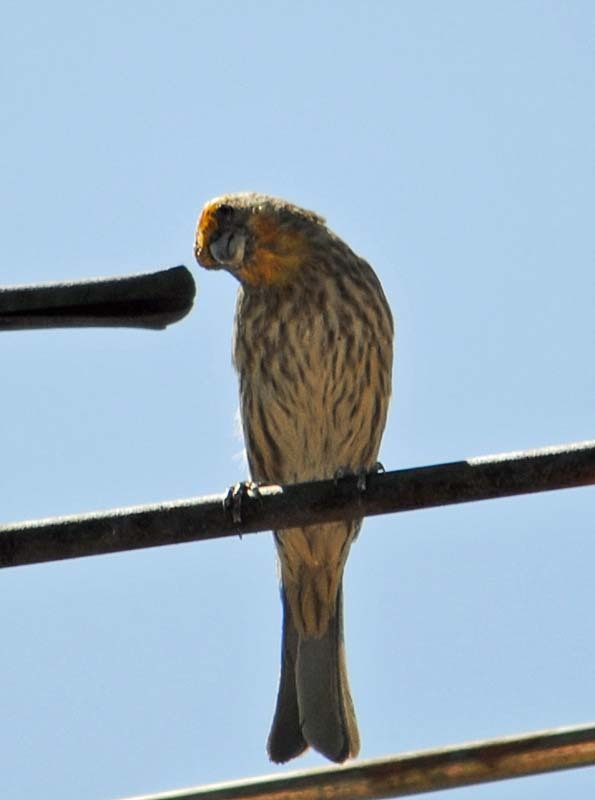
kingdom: Animalia
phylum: Chordata
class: Aves
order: Passeriformes
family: Fringillidae
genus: Haemorhous
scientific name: Haemorhous mexicanus
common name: House finch
